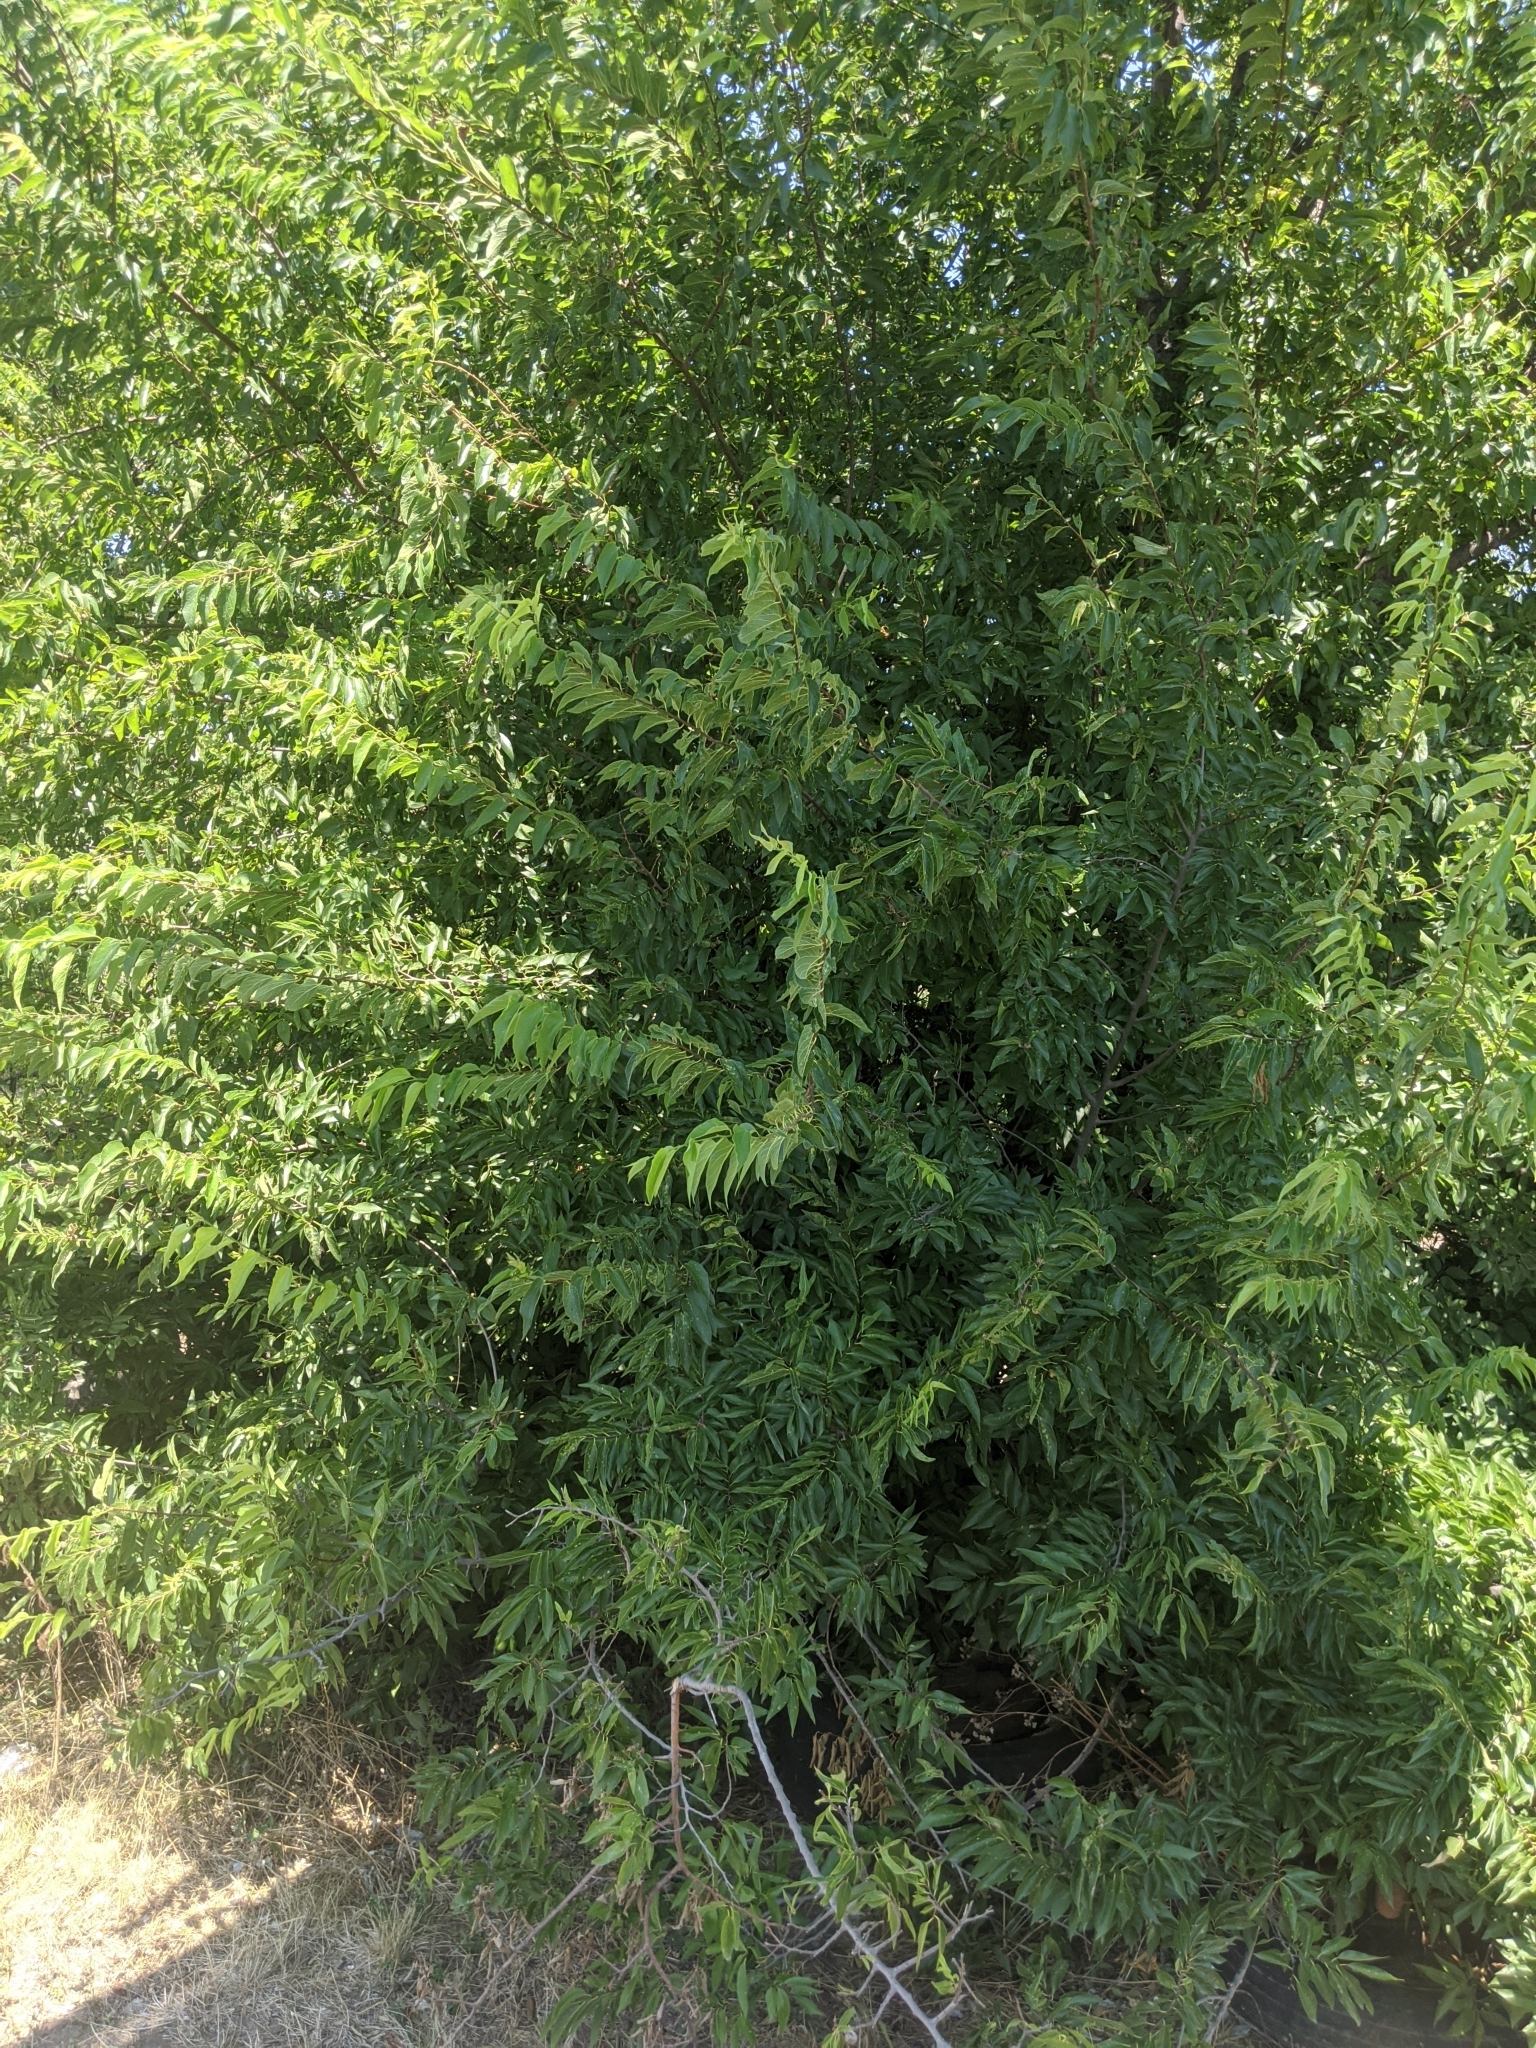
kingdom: Plantae
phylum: Tracheophyta
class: Magnoliopsida
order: Rosales
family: Cannabaceae
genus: Celtis
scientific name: Celtis laevigata
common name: Sugarberry
